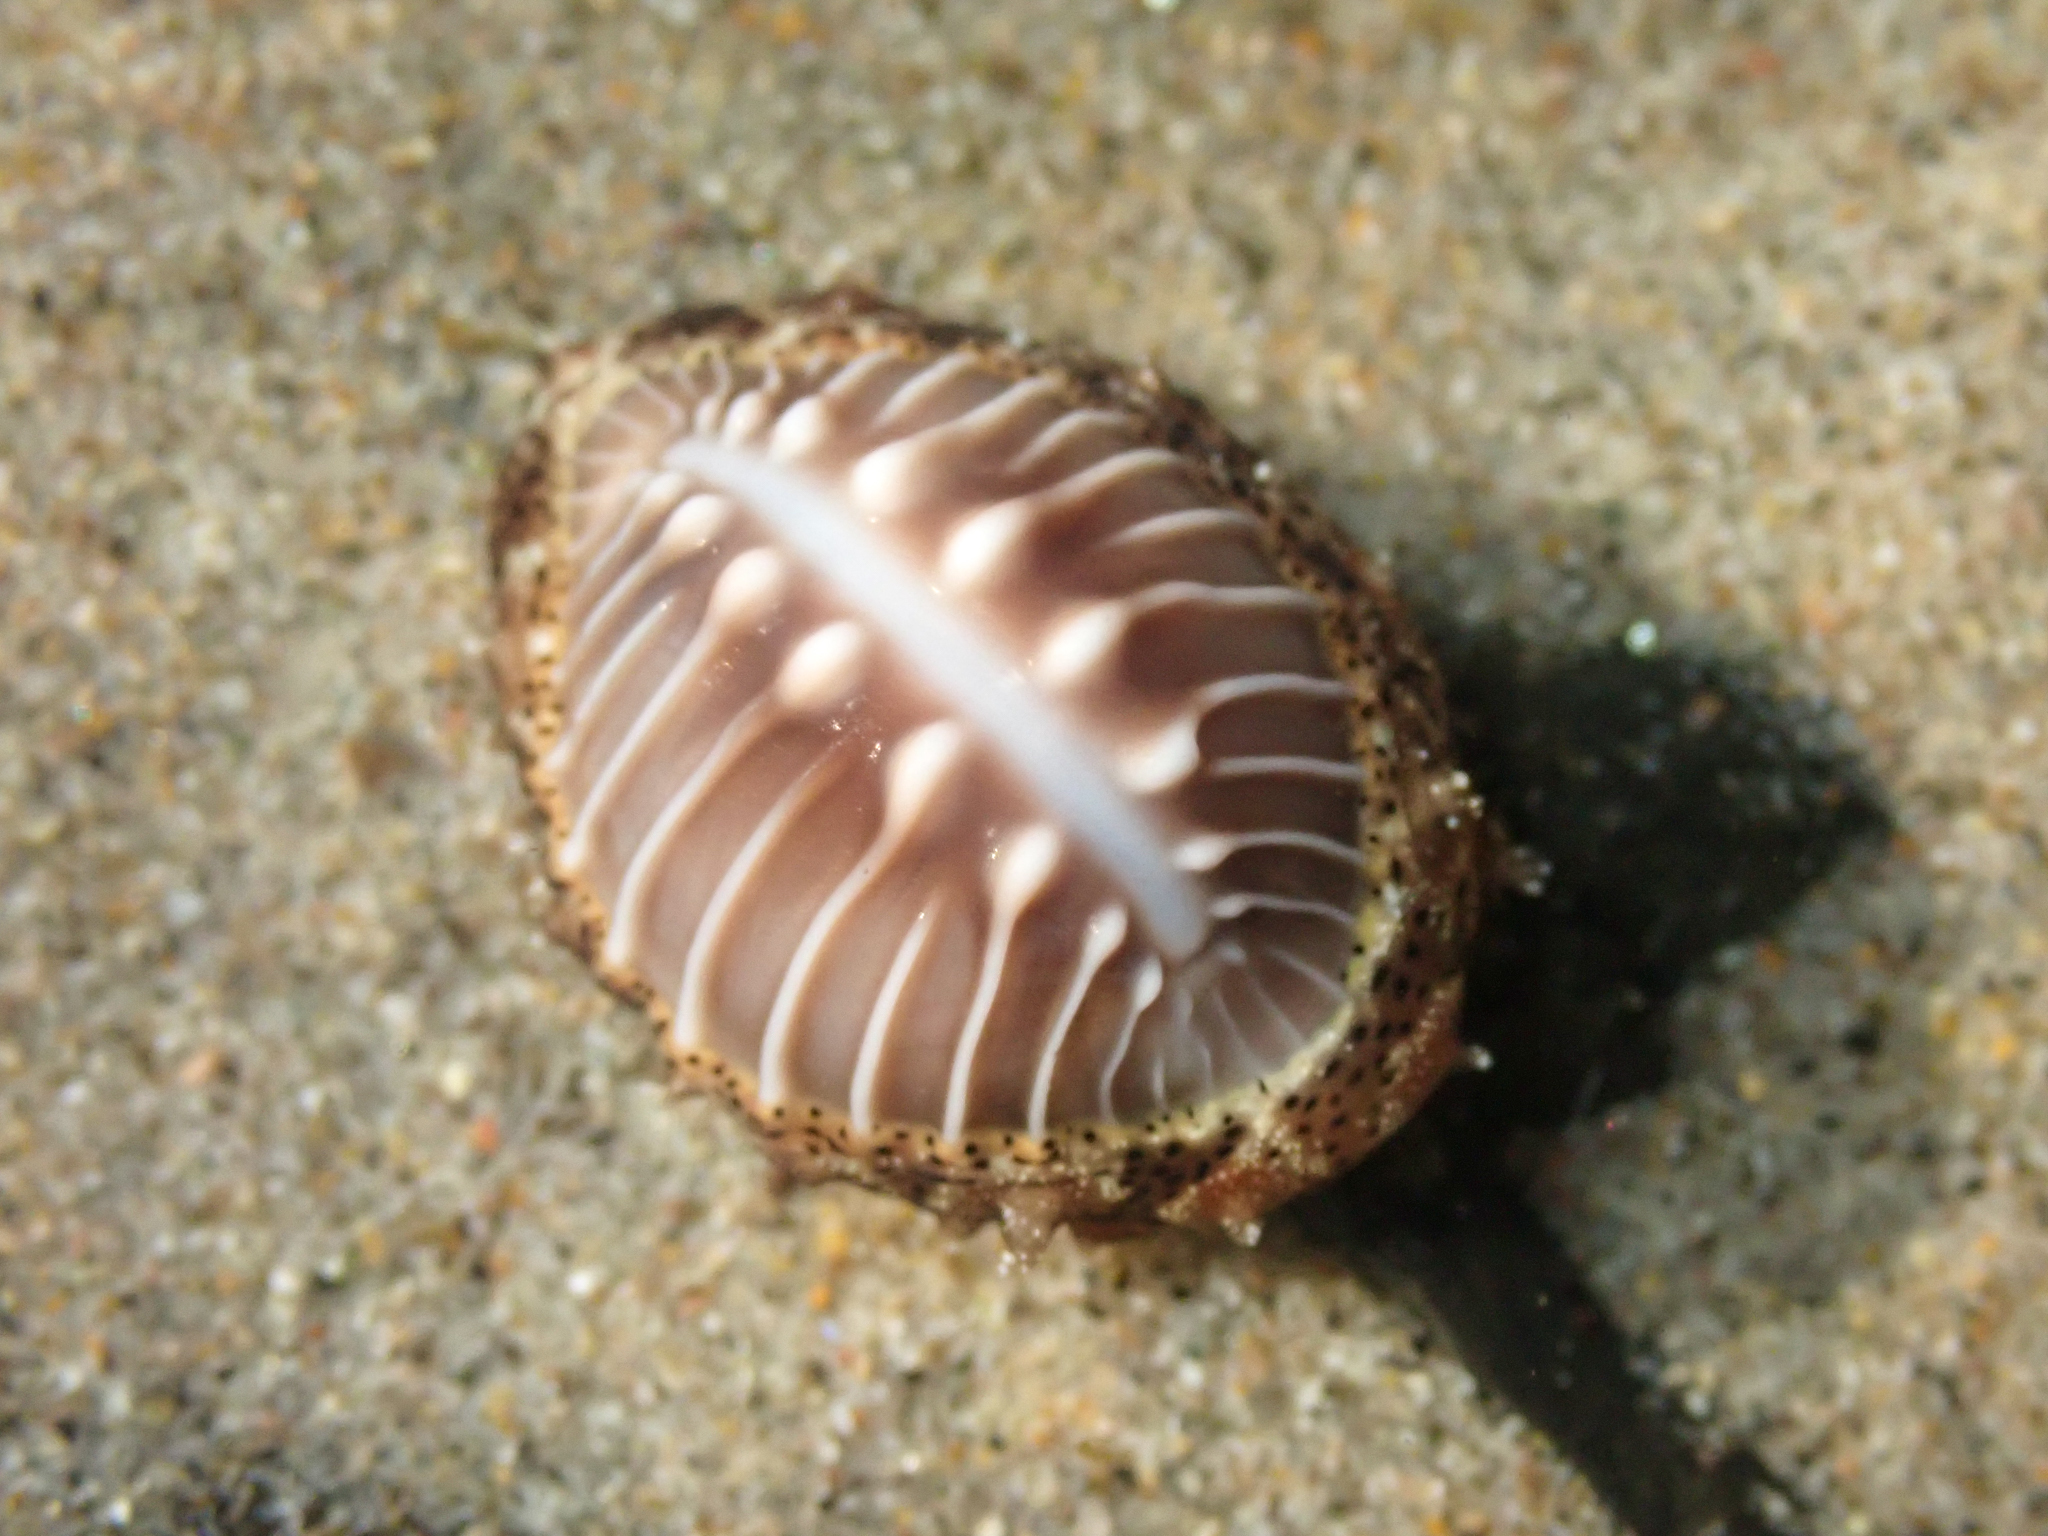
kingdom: Animalia
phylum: Mollusca
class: Gastropoda
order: Littorinimorpha
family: Triviidae
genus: Pusula
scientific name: Pusula solandri
